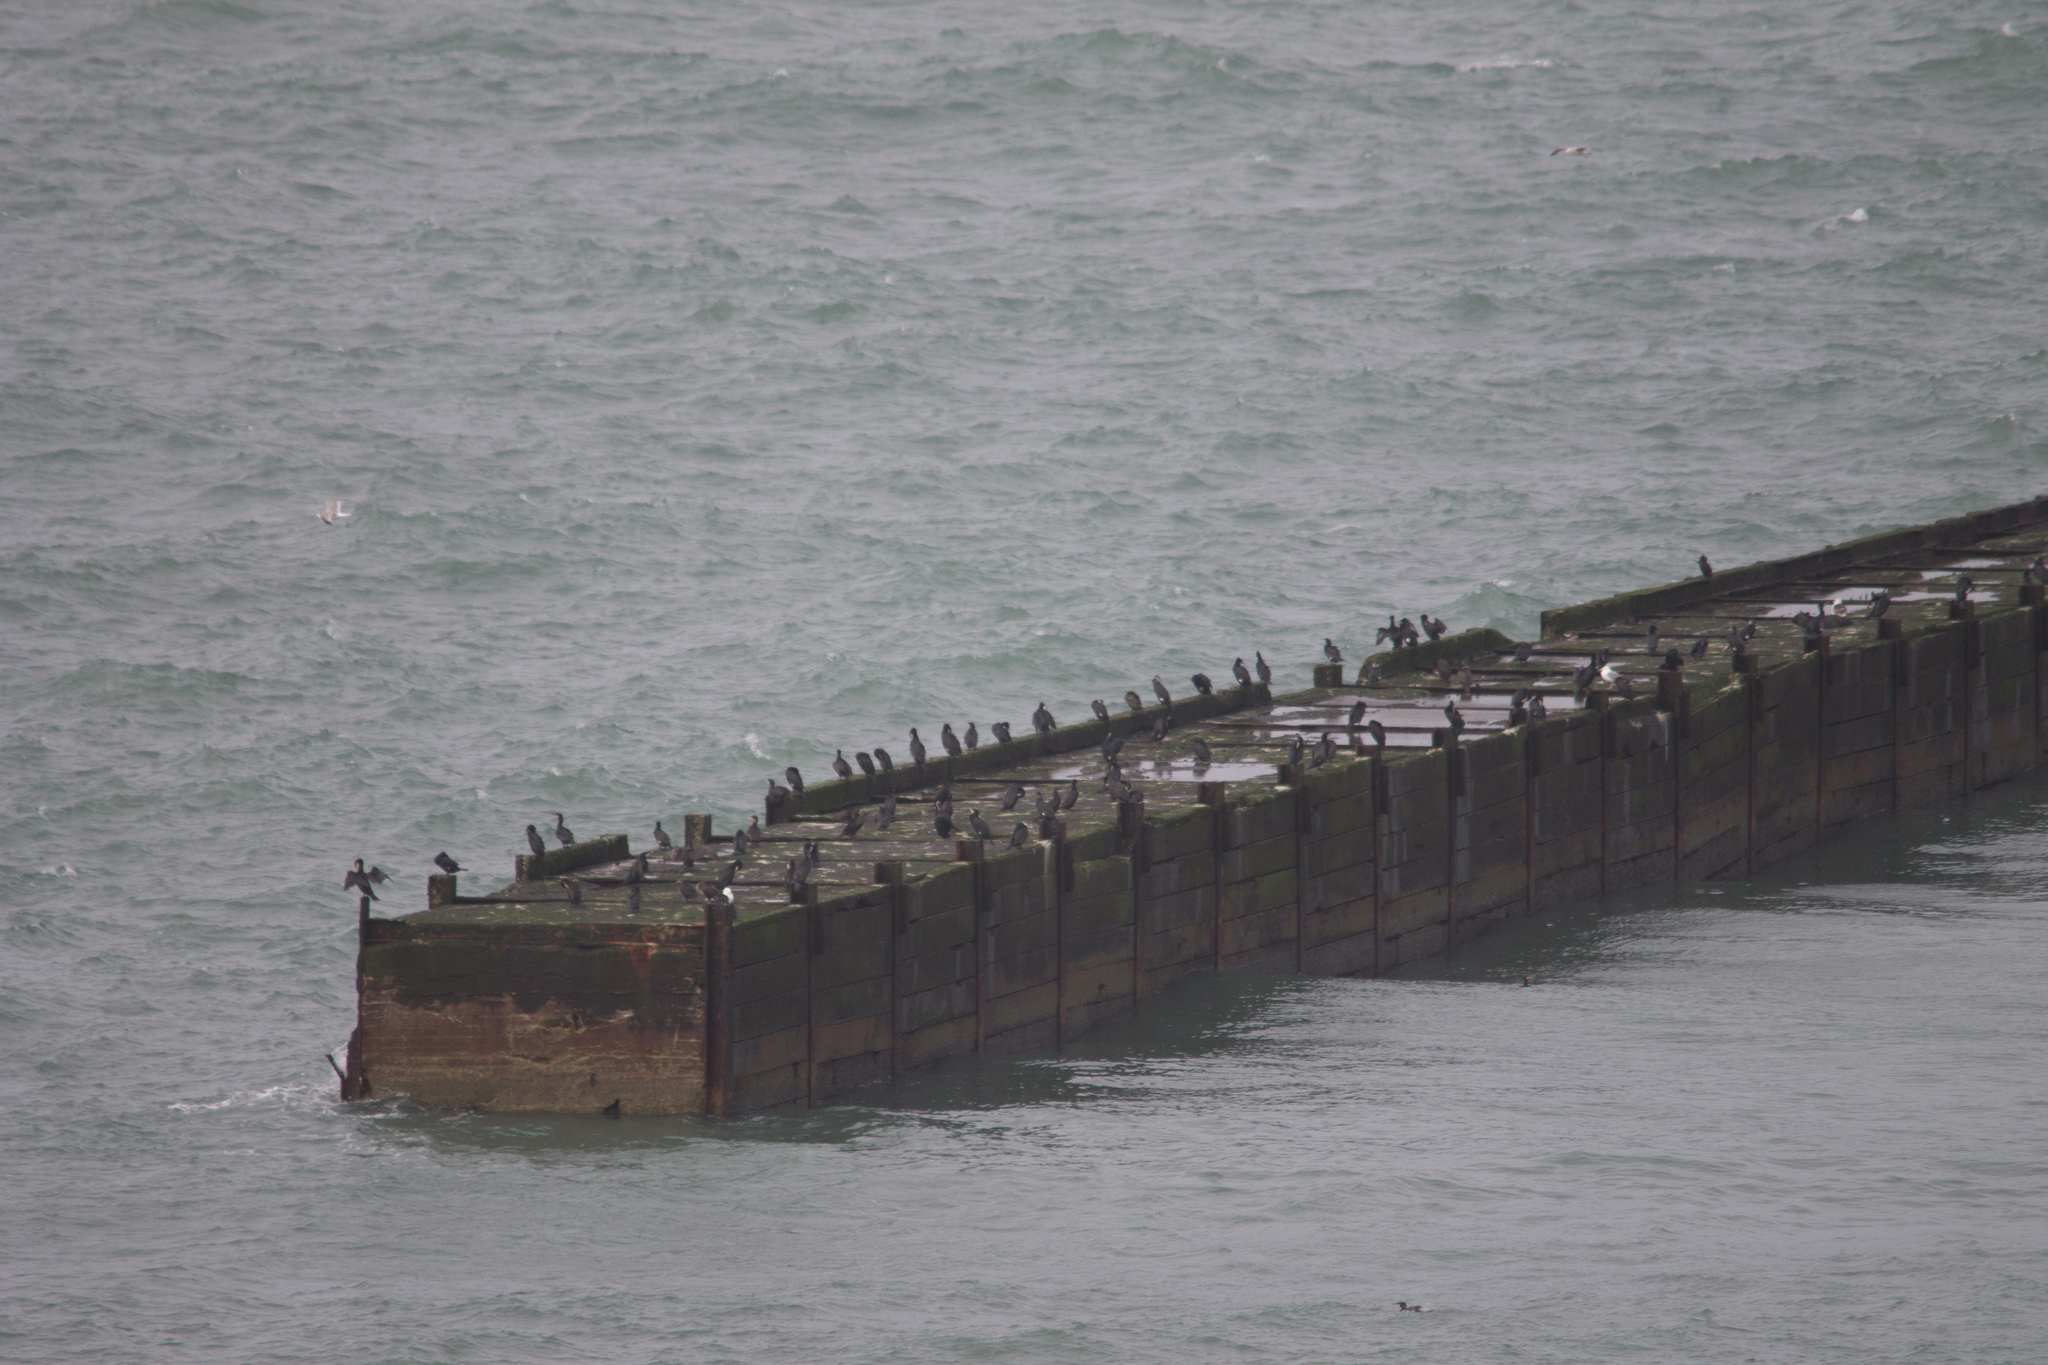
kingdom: Animalia
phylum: Chordata
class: Aves
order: Suliformes
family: Phalacrocoracidae
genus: Phalacrocorax
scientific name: Phalacrocorax carbo
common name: Great cormorant
